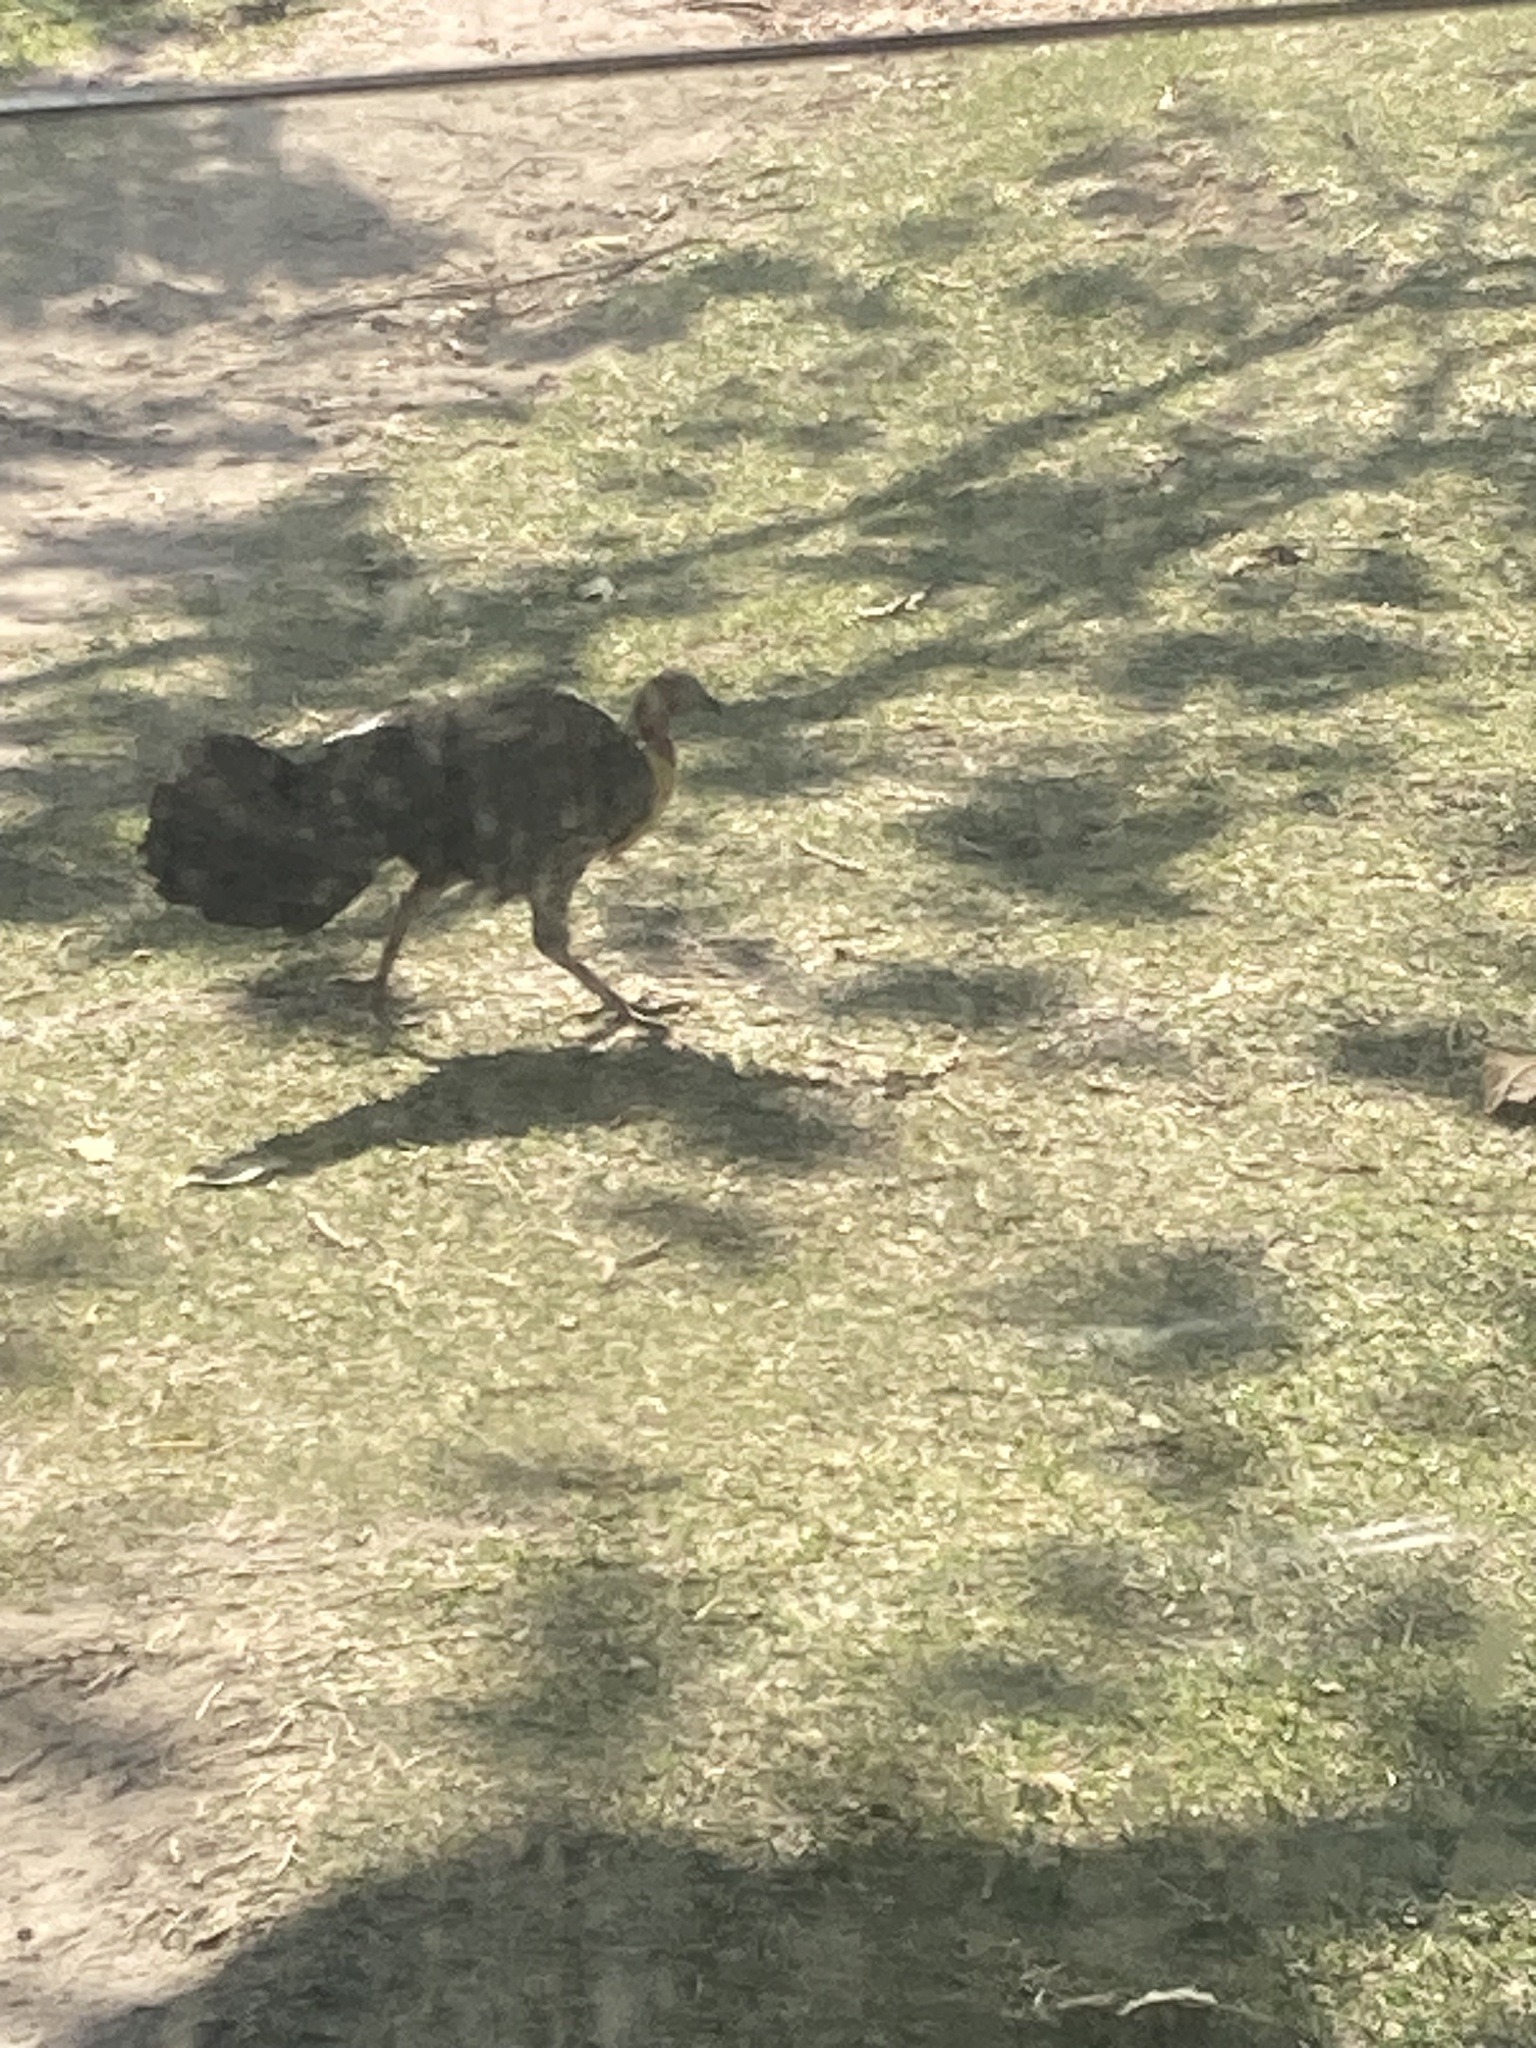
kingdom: Animalia
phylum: Chordata
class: Aves
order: Galliformes
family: Megapodiidae
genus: Alectura
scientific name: Alectura lathami
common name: Australian brushturkey
